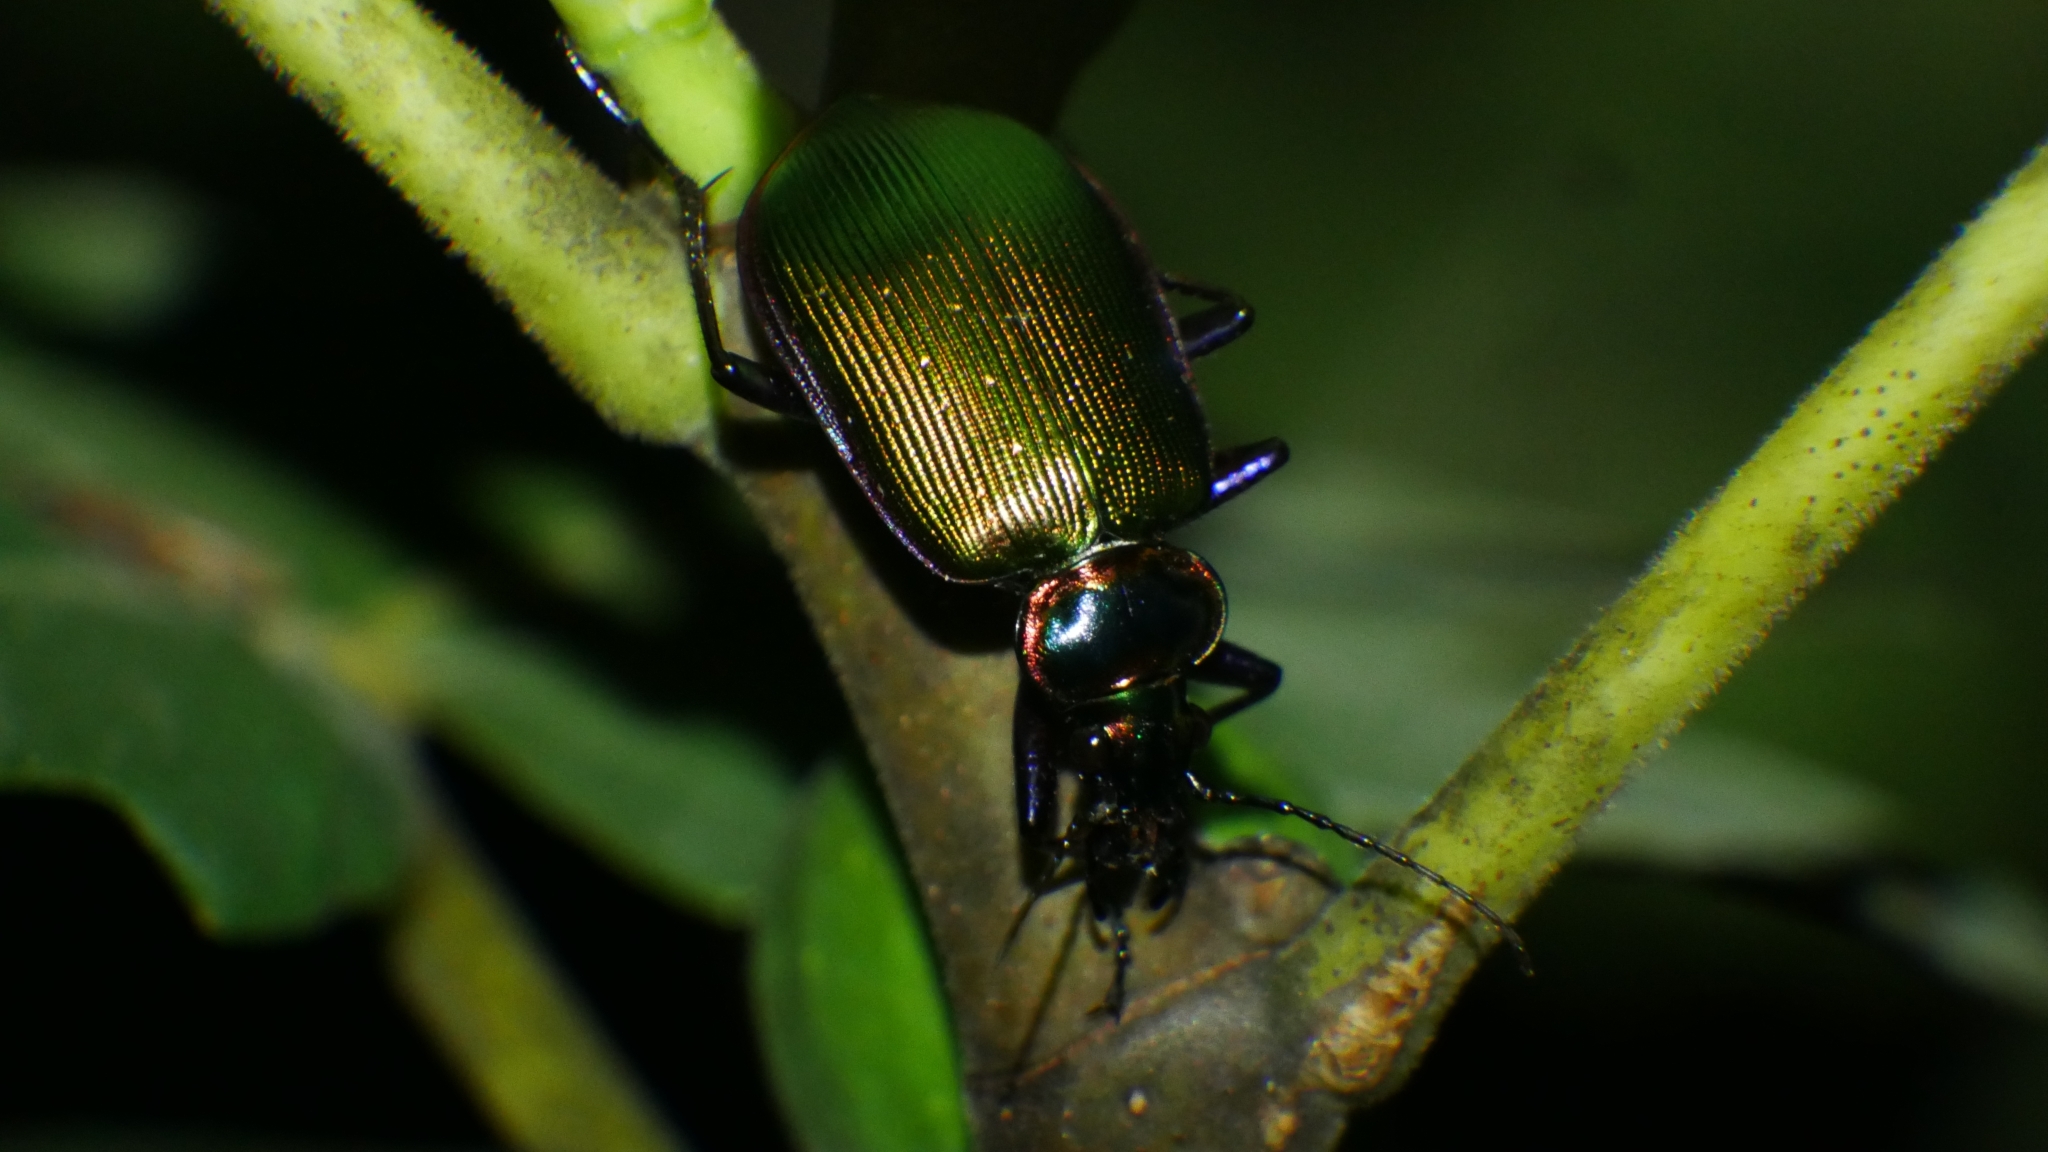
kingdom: Animalia
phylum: Arthropoda
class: Insecta
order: Coleoptera
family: Carabidae
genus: Calosoma
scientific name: Calosoma scrutator
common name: Fiery searcher beetle
